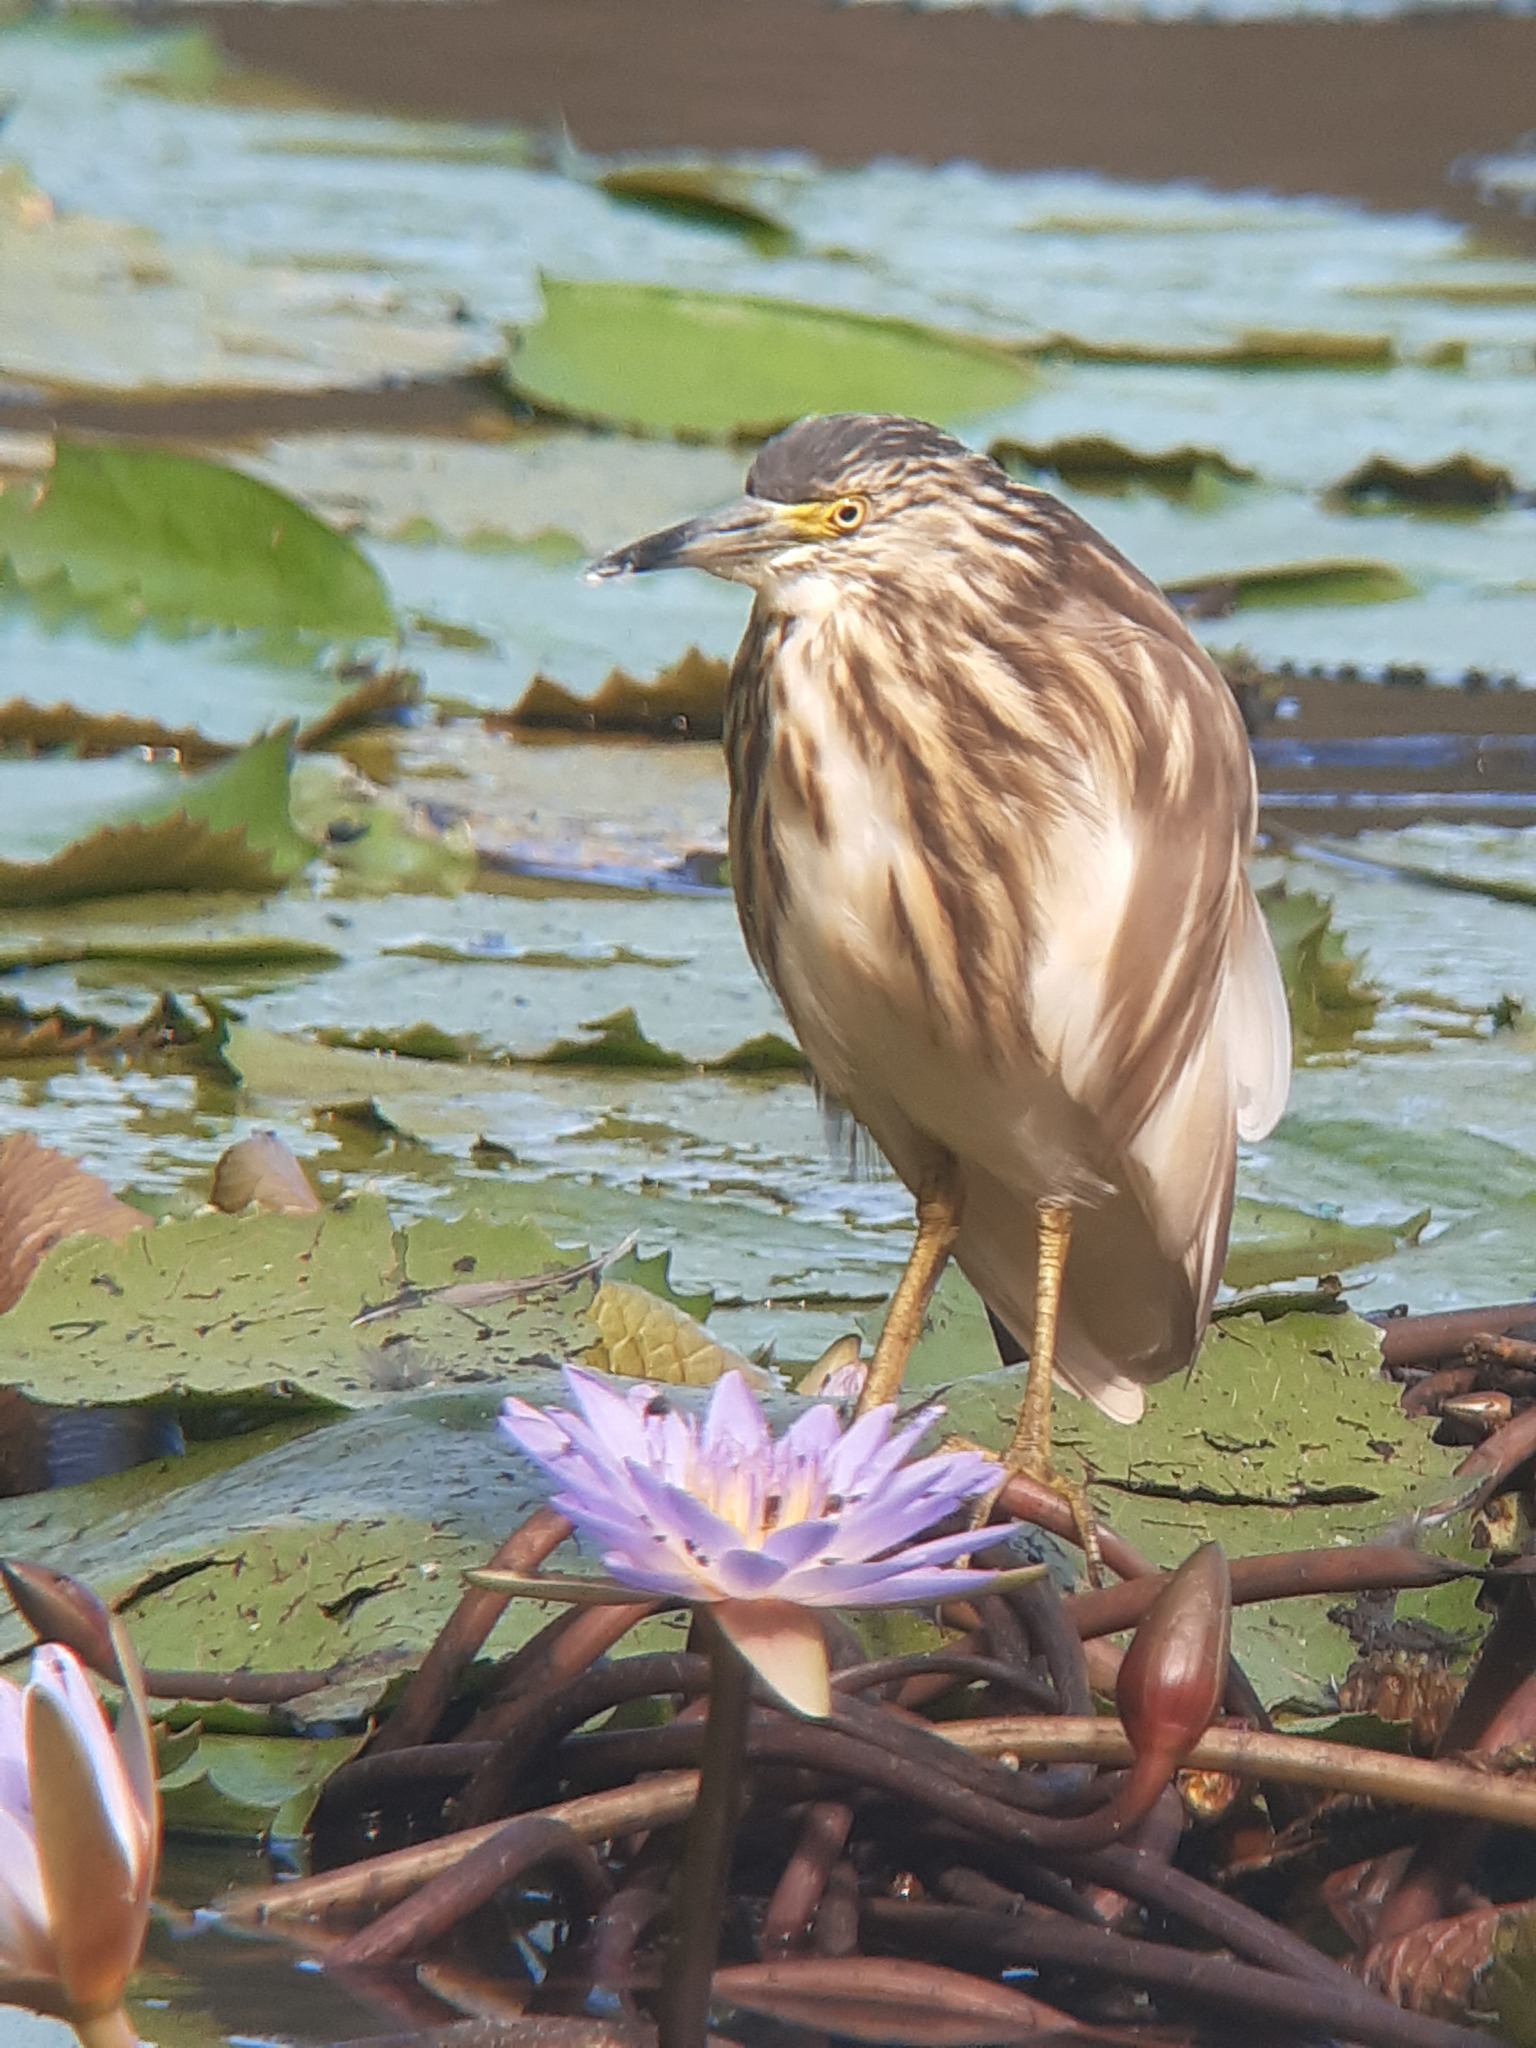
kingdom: Animalia
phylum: Chordata
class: Aves
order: Pelecaniformes
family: Ardeidae
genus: Ardeola
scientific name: Ardeola idae
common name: Malagasy pond heron
